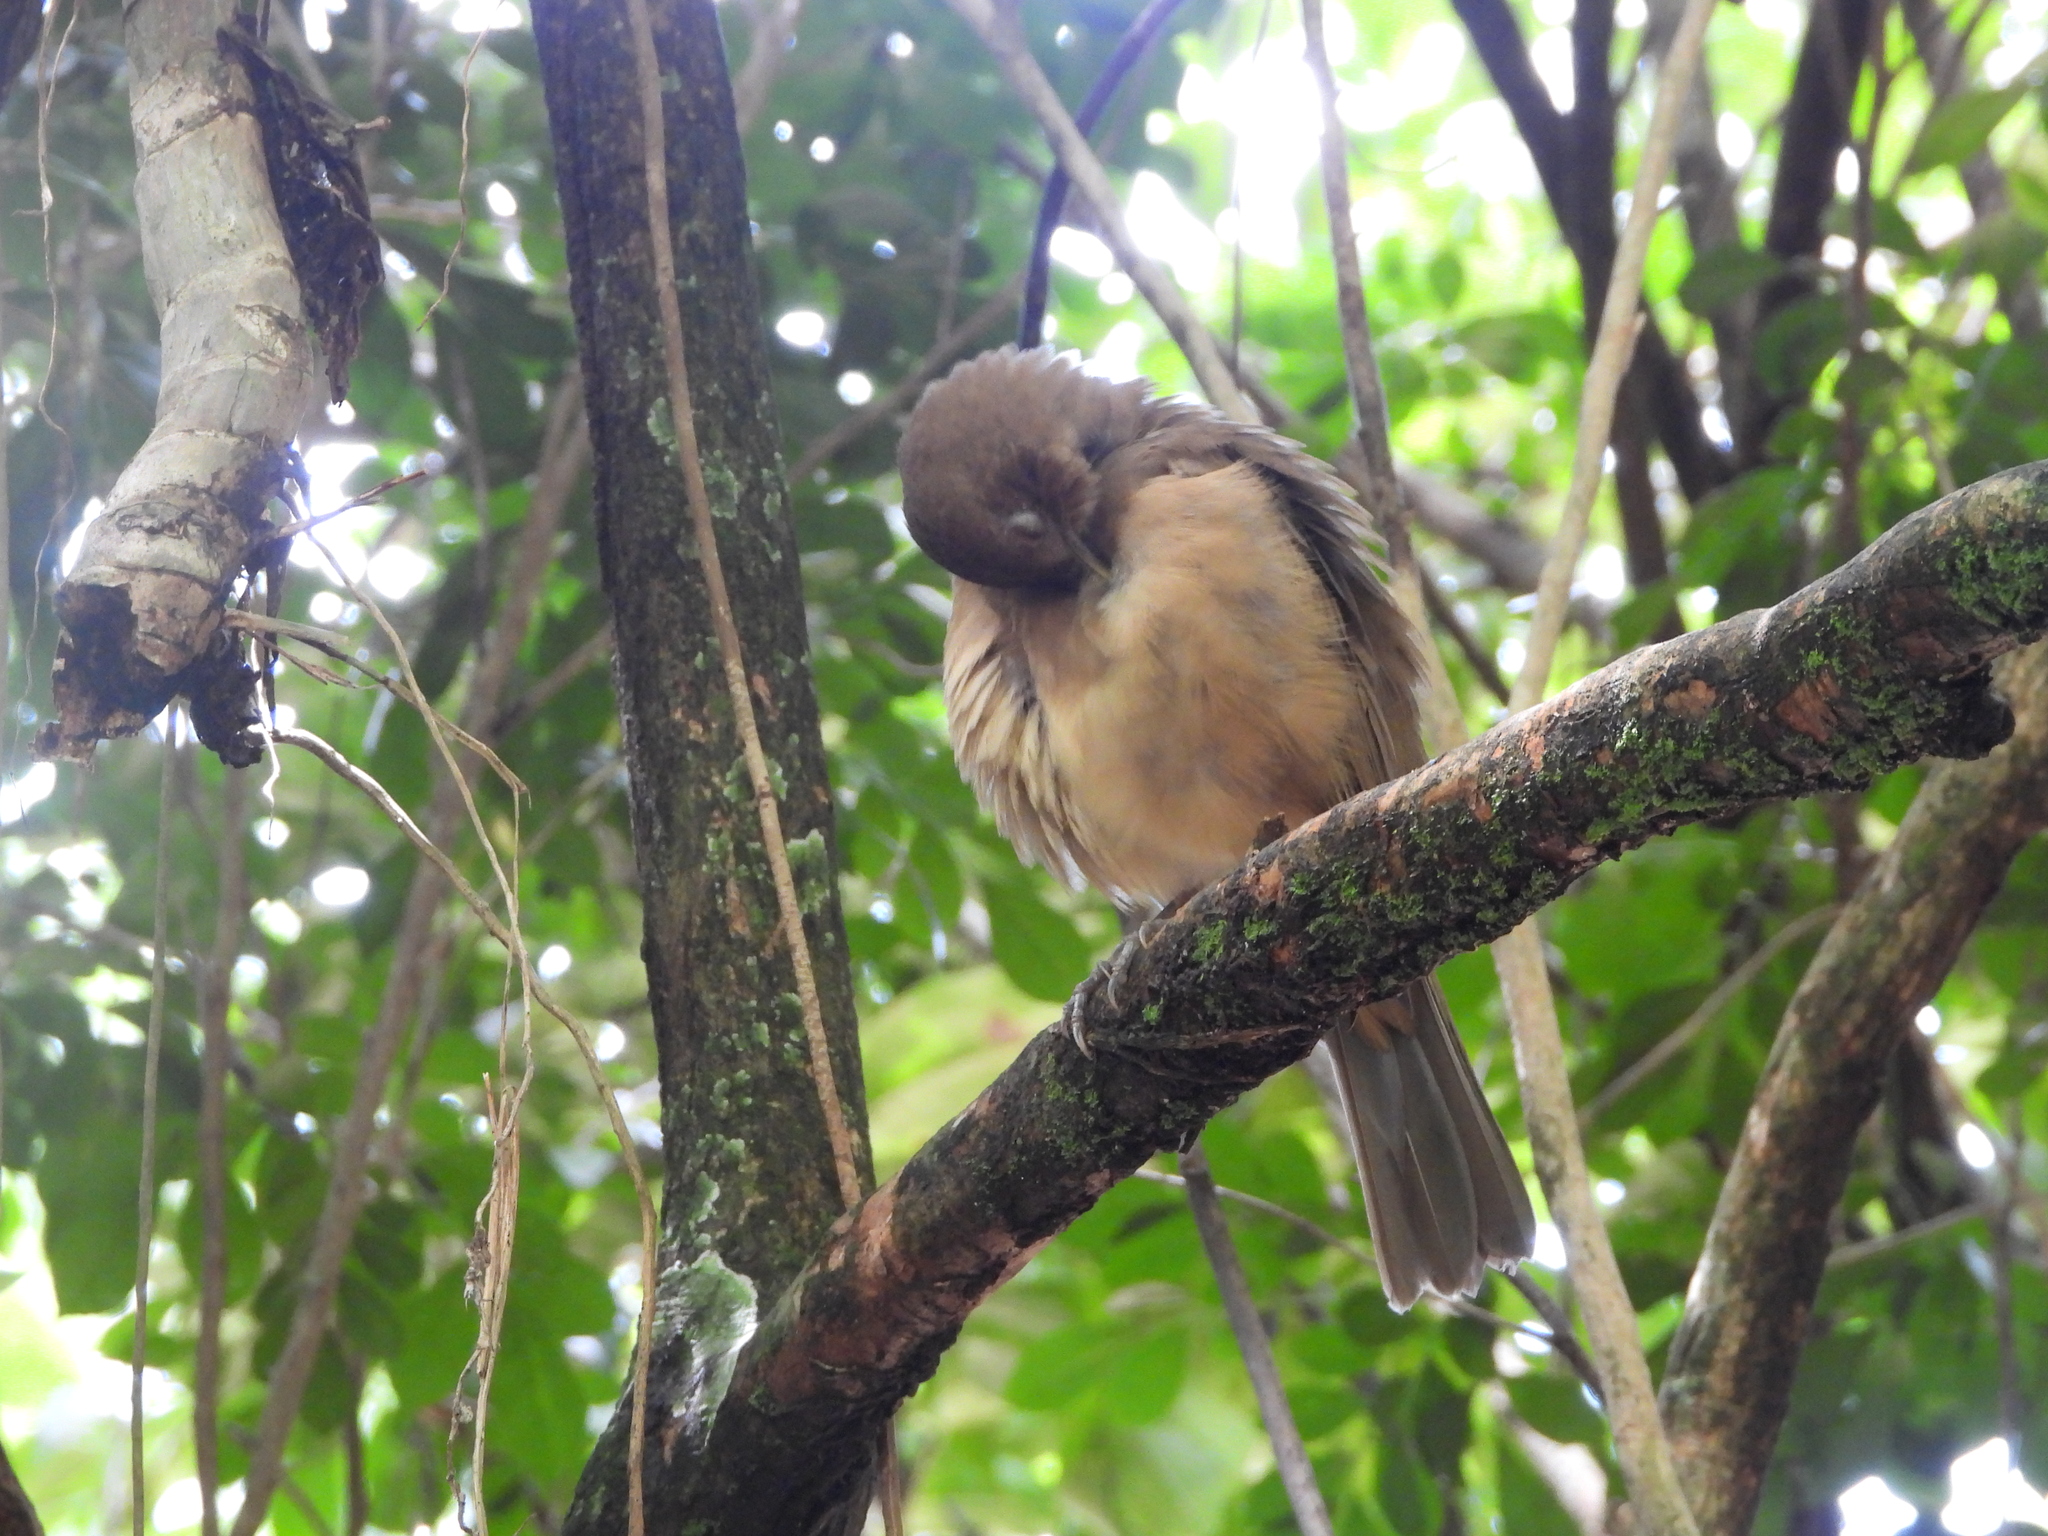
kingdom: Animalia
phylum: Chordata
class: Aves
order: Passeriformes
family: Turdidae
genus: Turdus
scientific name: Turdus grayi
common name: Clay-colored thrush
